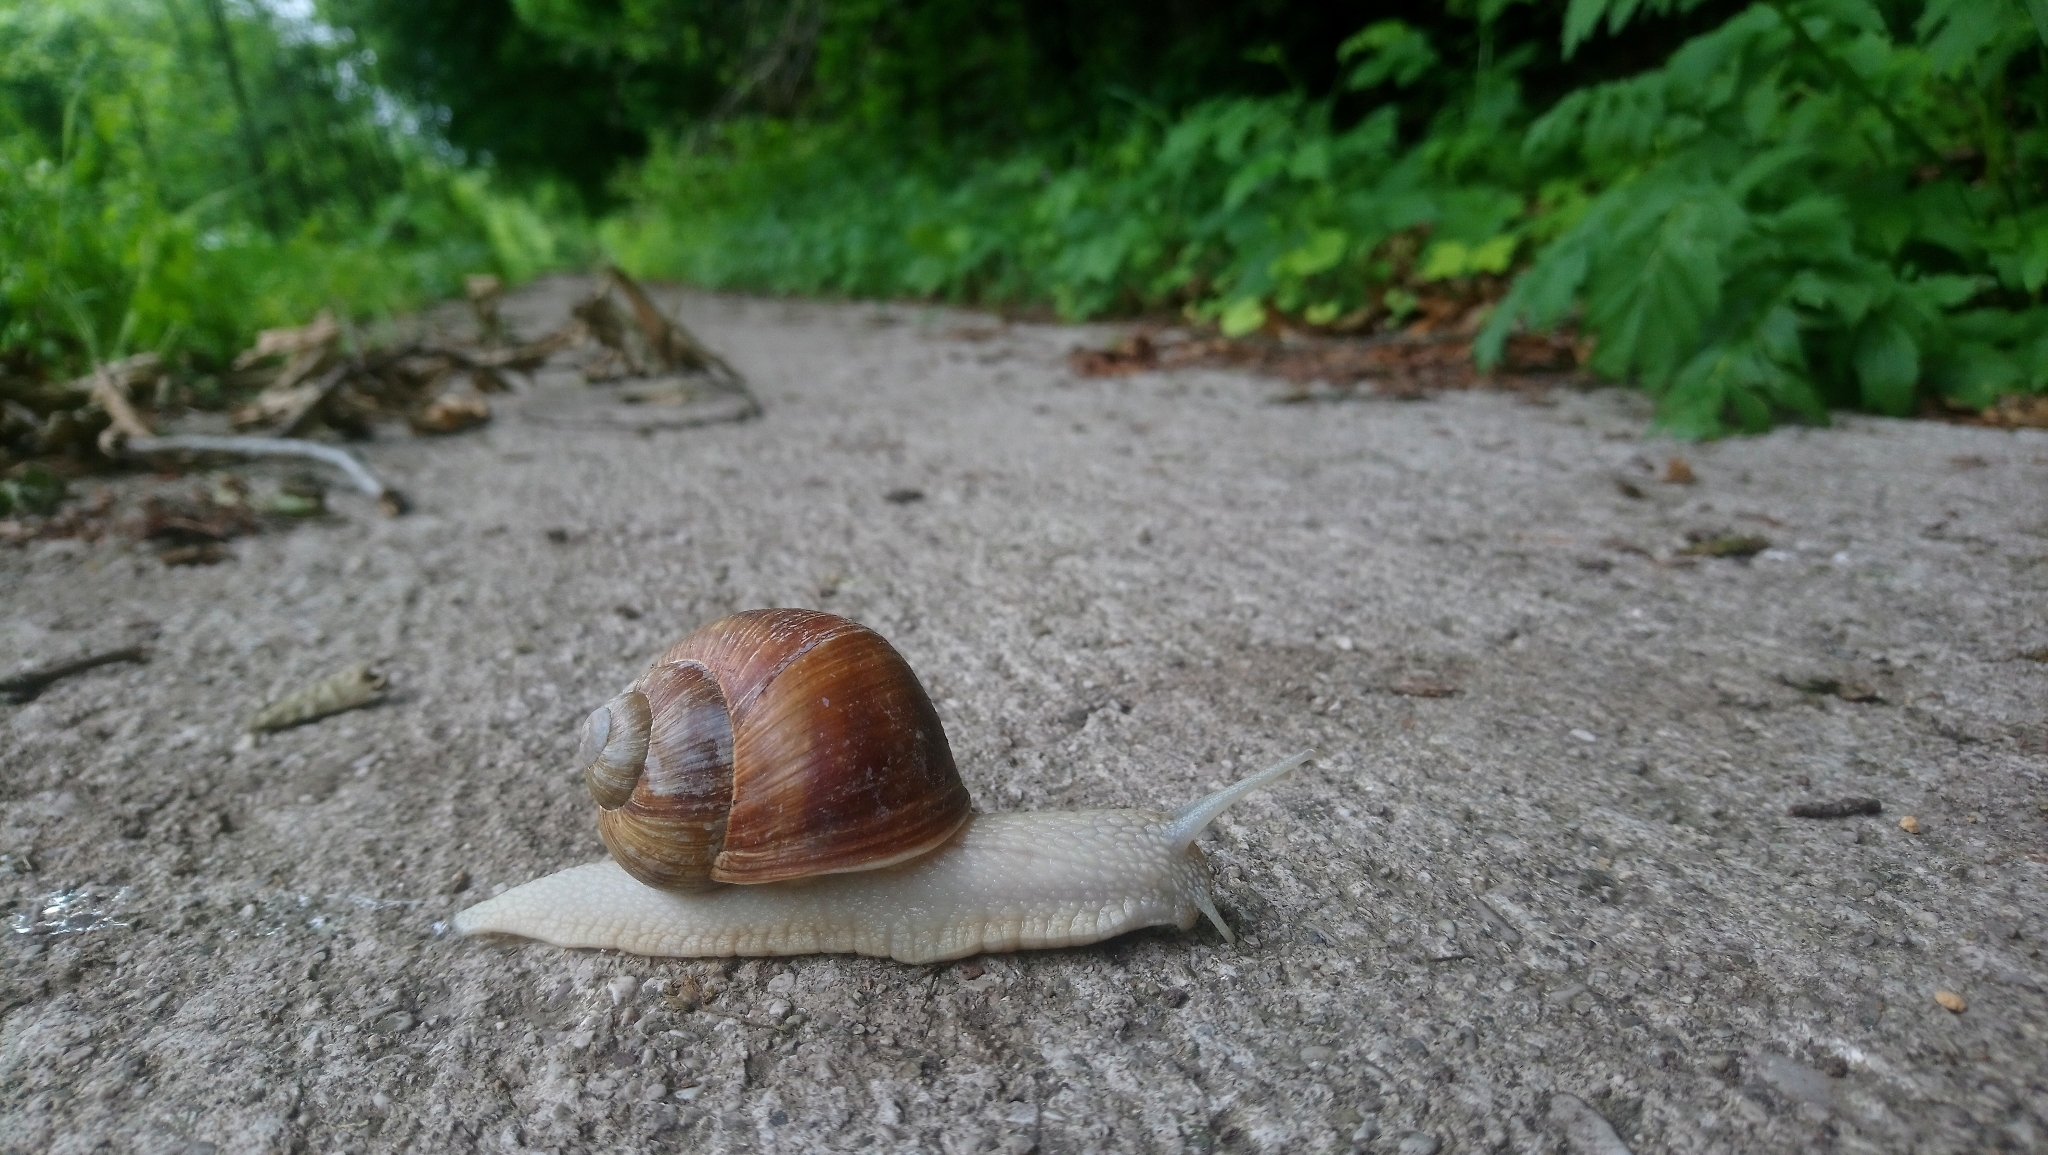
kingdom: Animalia
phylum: Mollusca
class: Gastropoda
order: Stylommatophora
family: Helicidae
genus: Helix
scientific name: Helix pomatia
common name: Roman snail
